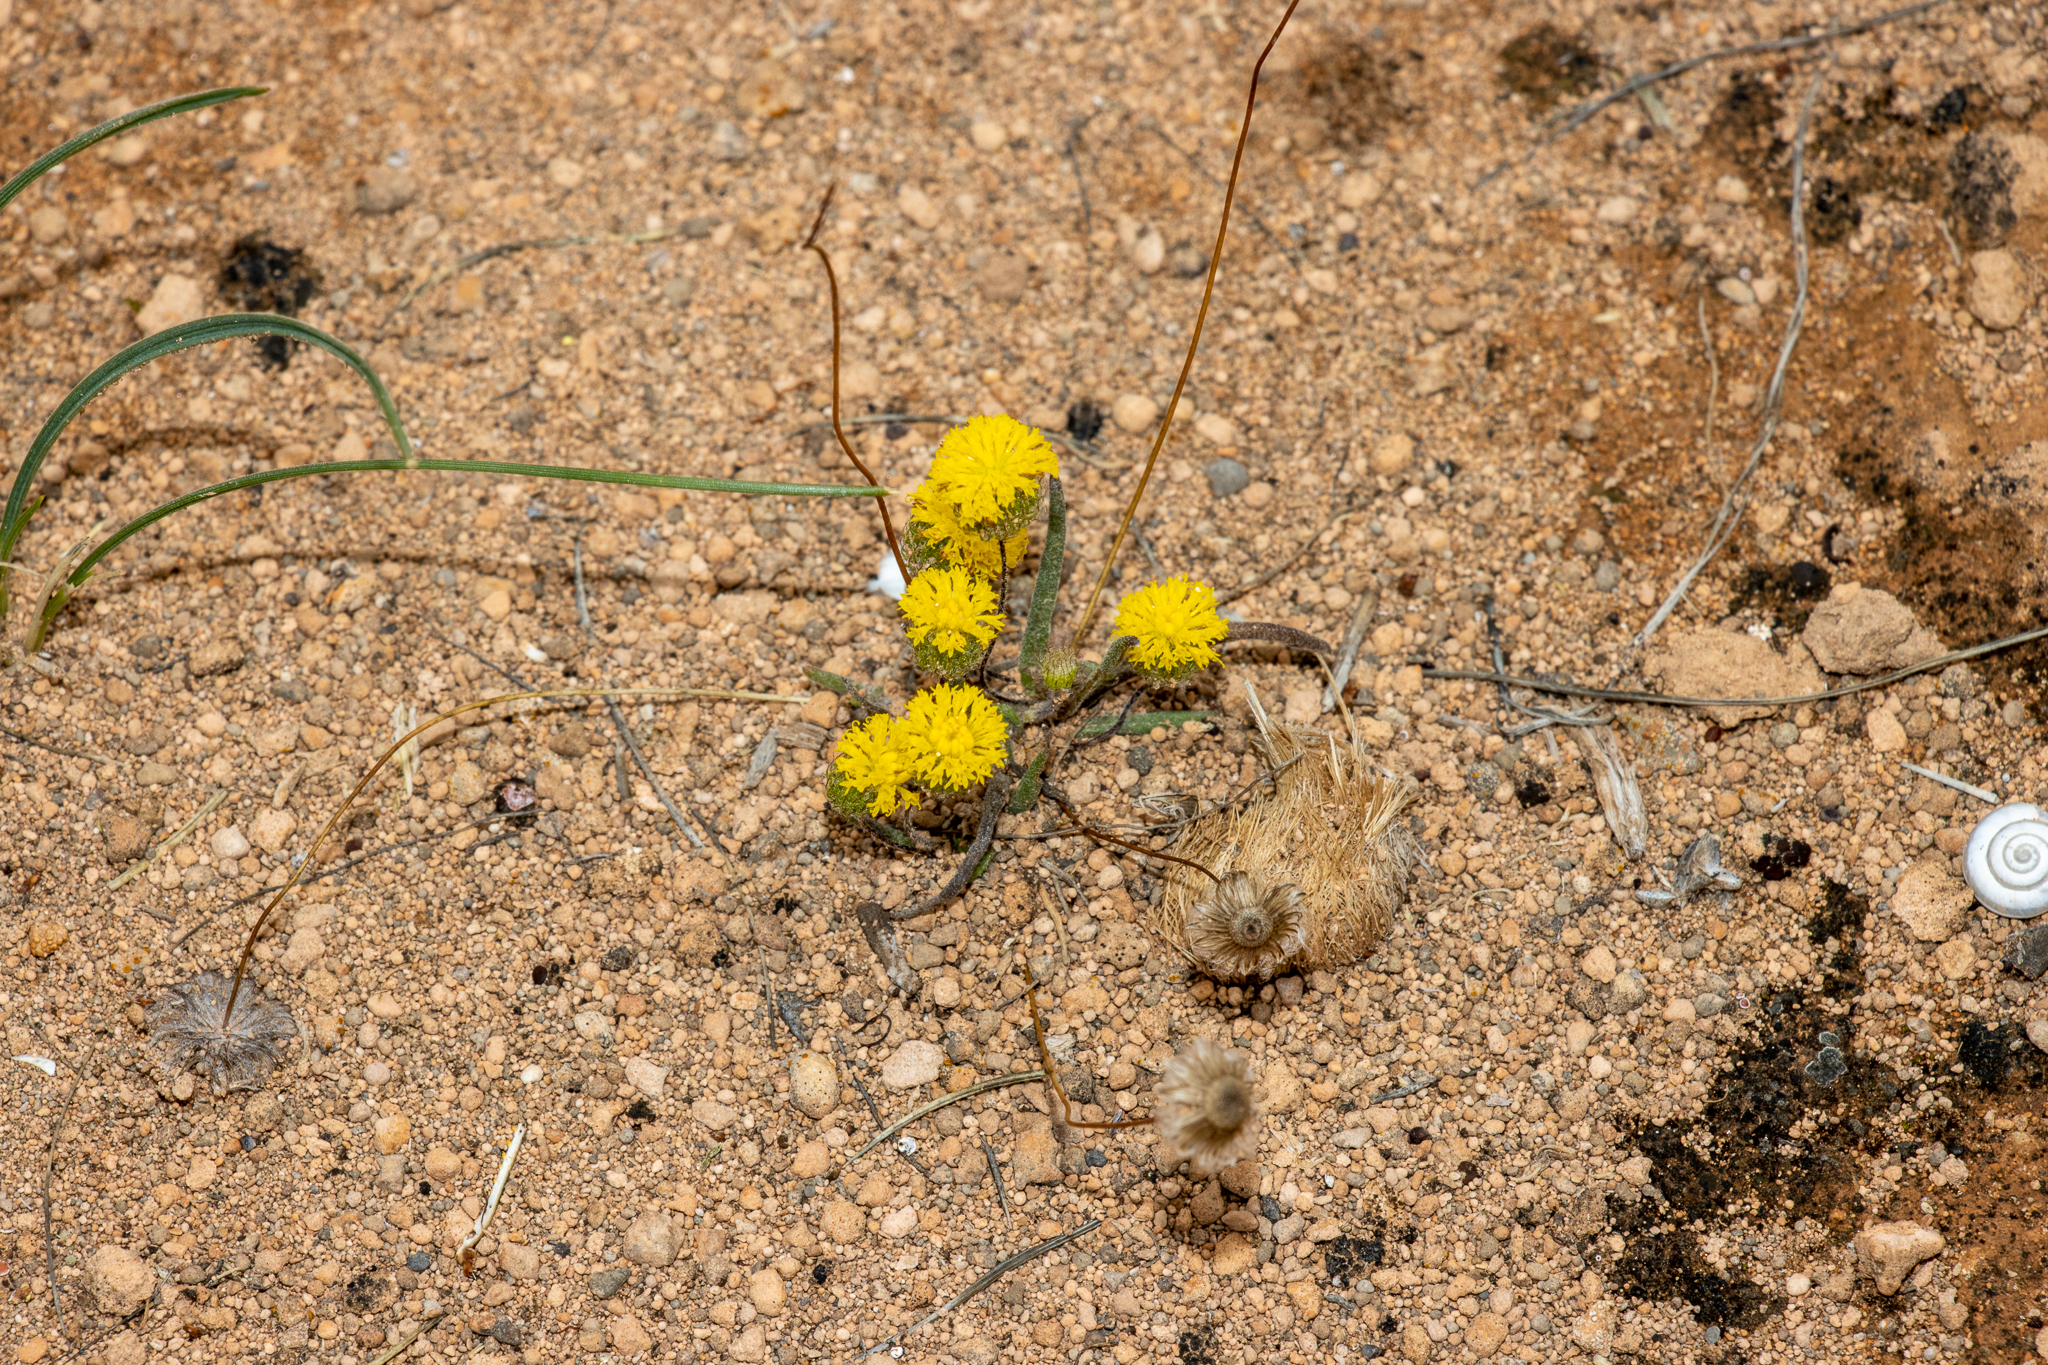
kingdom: Plantae
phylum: Tracheophyta
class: Magnoliopsida
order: Asterales
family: Asteraceae
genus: Asteridea
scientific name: Asteridea athrixioides
